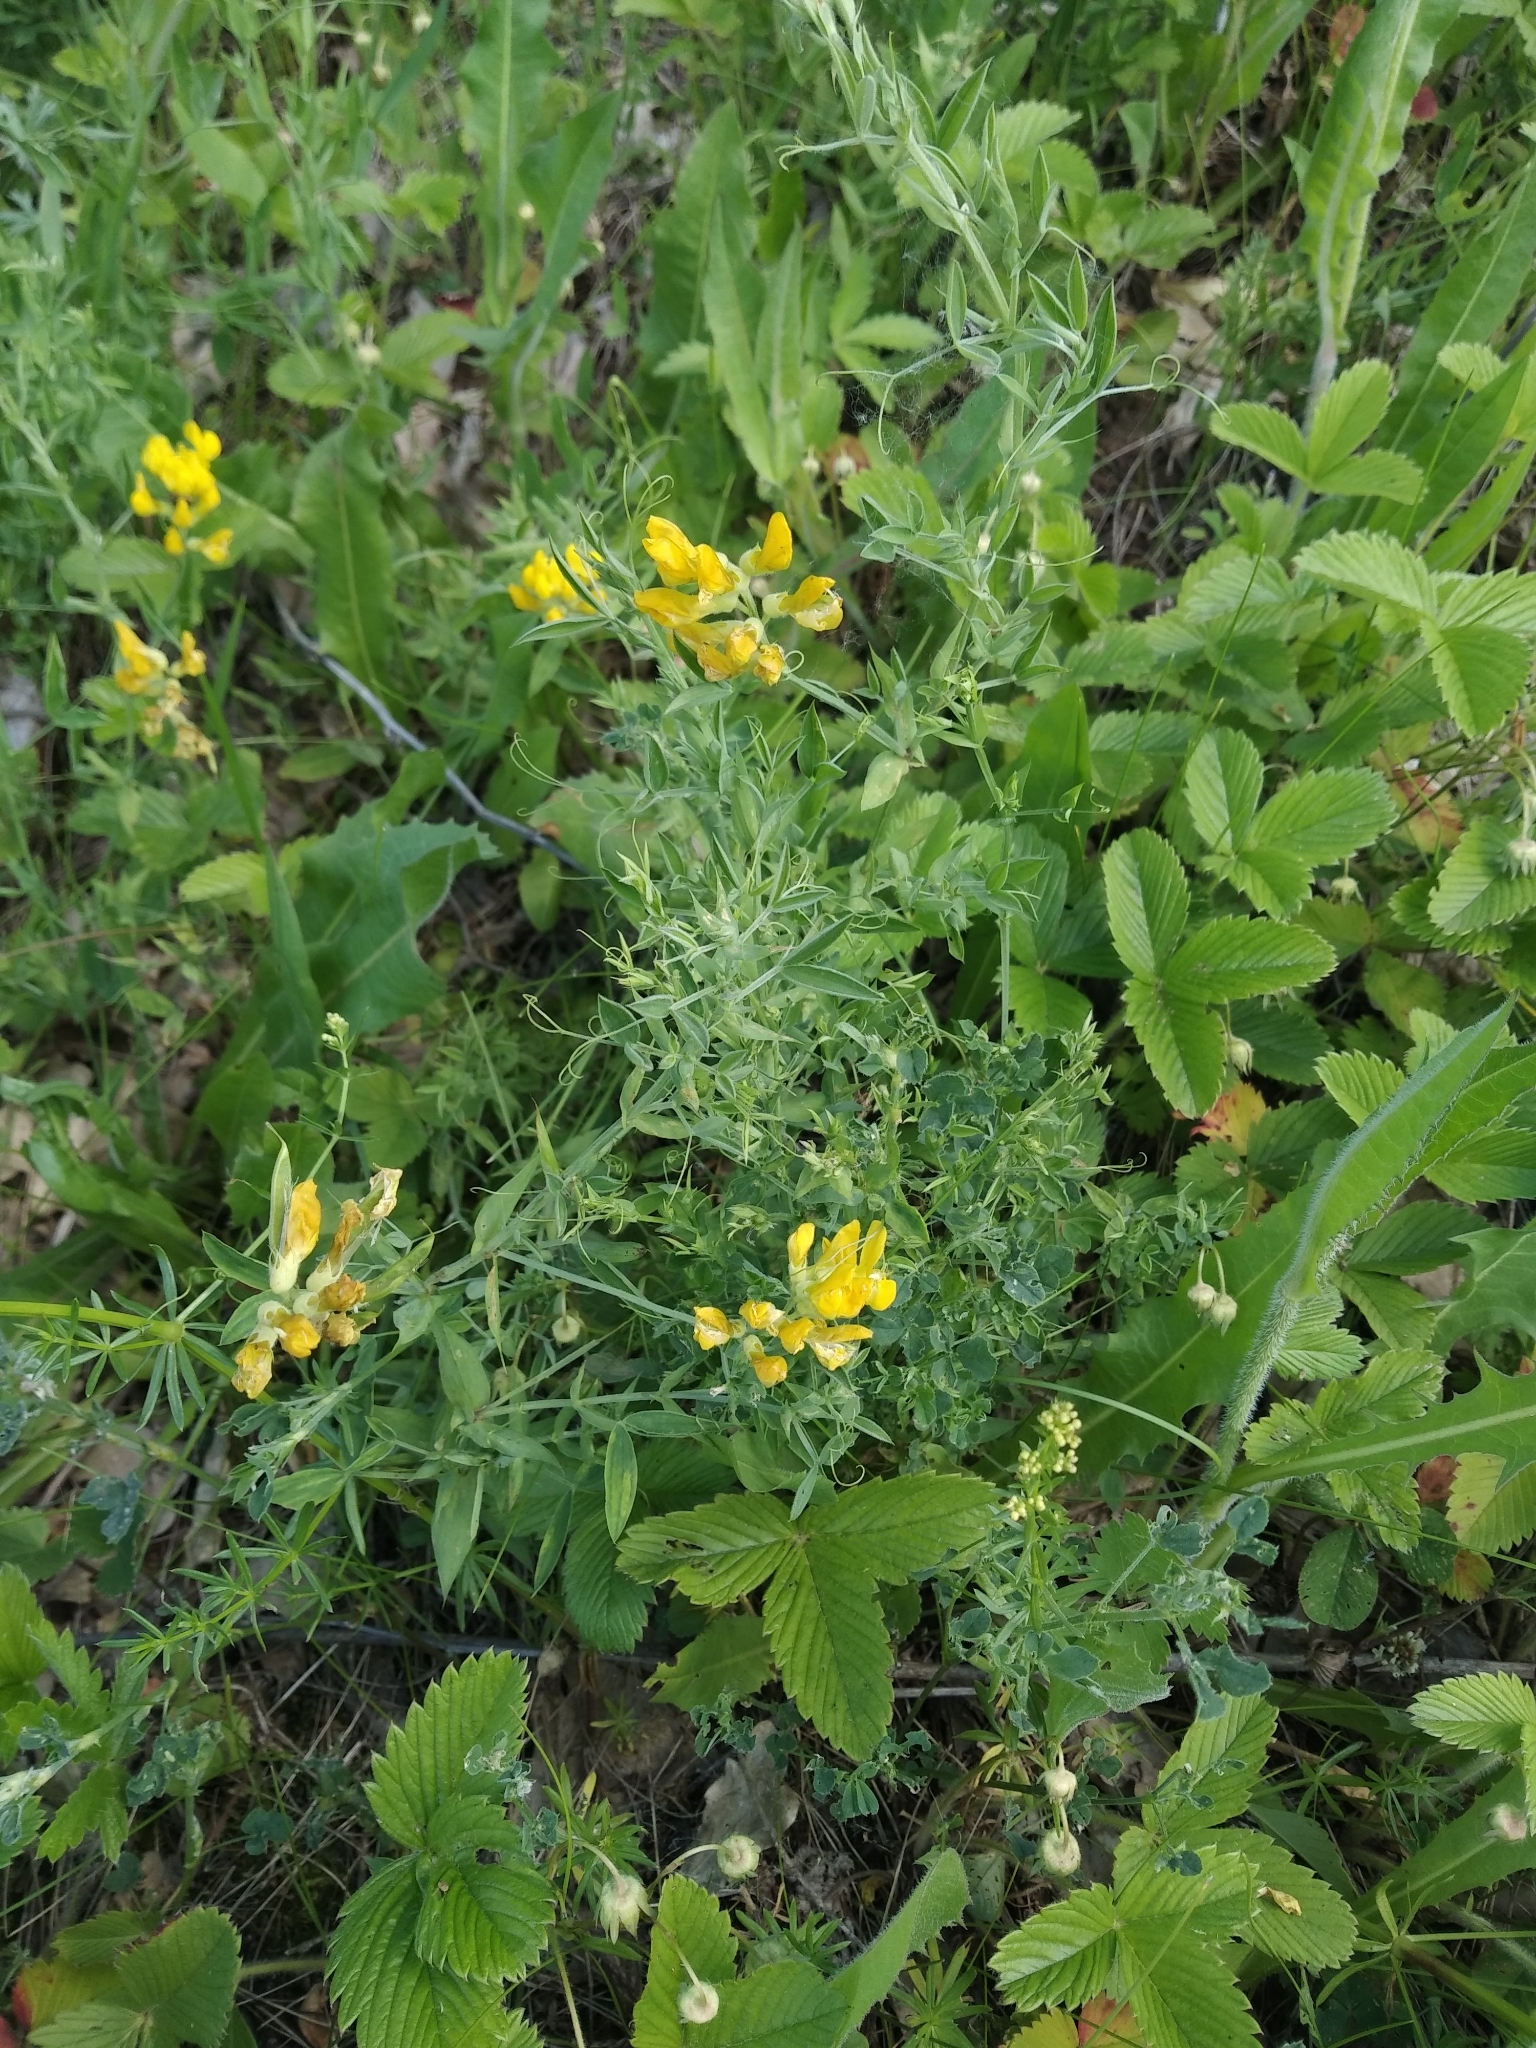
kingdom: Plantae
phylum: Tracheophyta
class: Magnoliopsida
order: Fabales
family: Fabaceae
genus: Lathyrus
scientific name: Lathyrus pratensis
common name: Meadow vetchling
